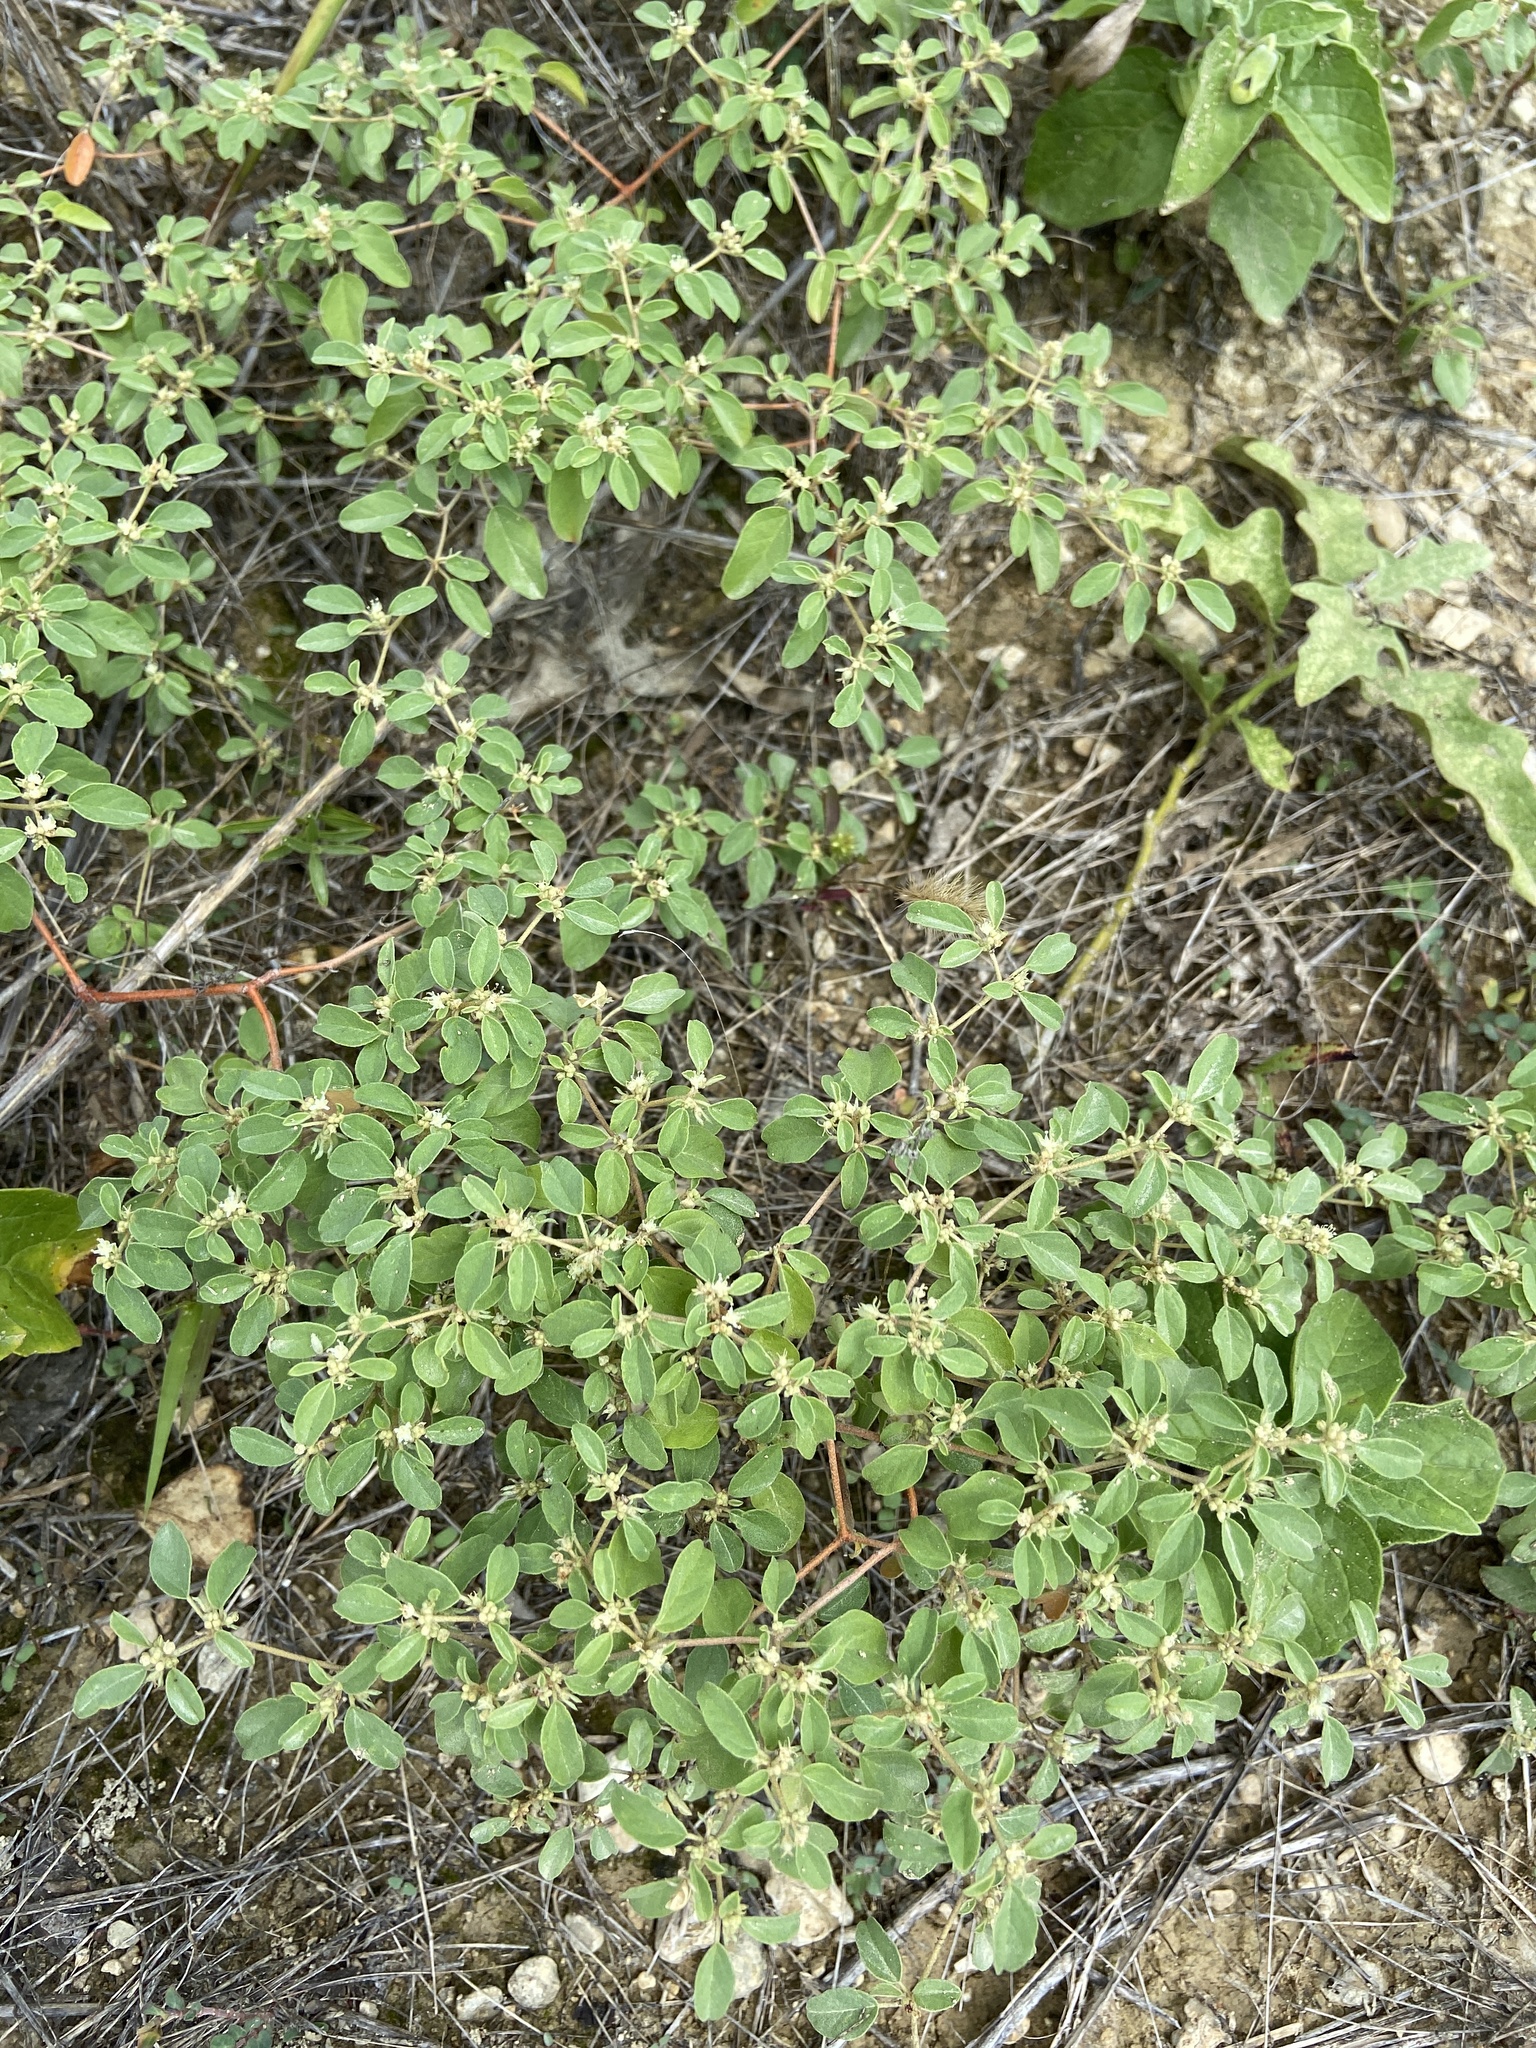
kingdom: Plantae
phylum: Tracheophyta
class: Magnoliopsida
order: Malpighiales
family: Euphorbiaceae
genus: Croton
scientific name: Croton monanthogynus
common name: One-seed croton
